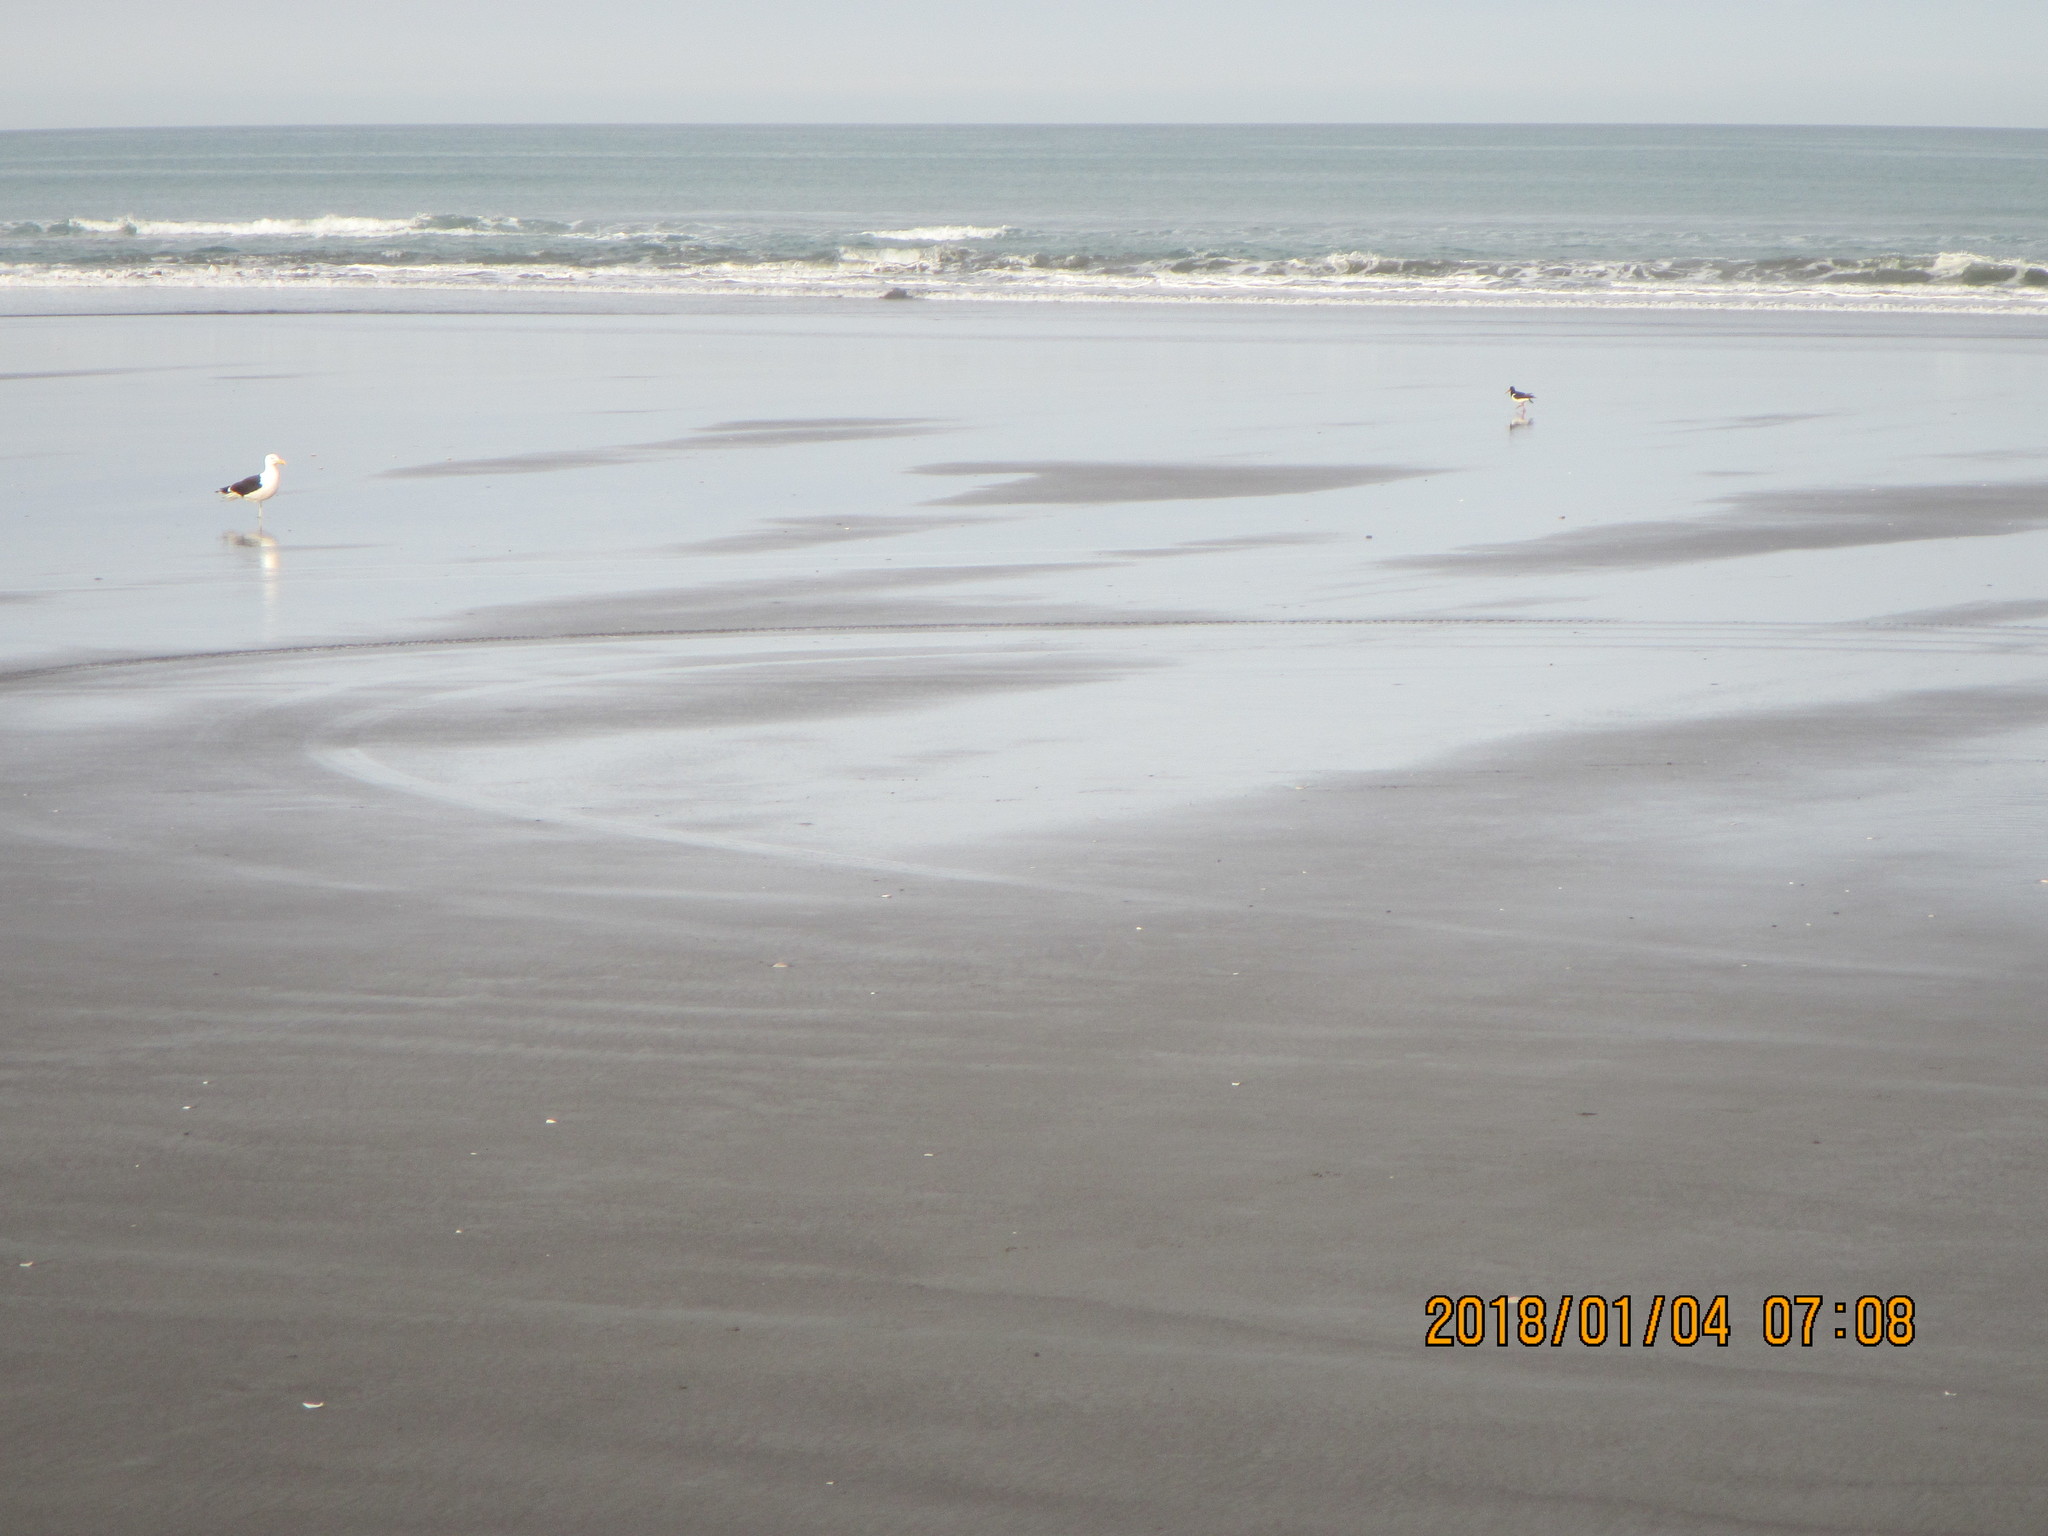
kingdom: Animalia
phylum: Chordata
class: Aves
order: Charadriiformes
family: Haematopodidae
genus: Haematopus
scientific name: Haematopus finschi
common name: South island oystercatcher
